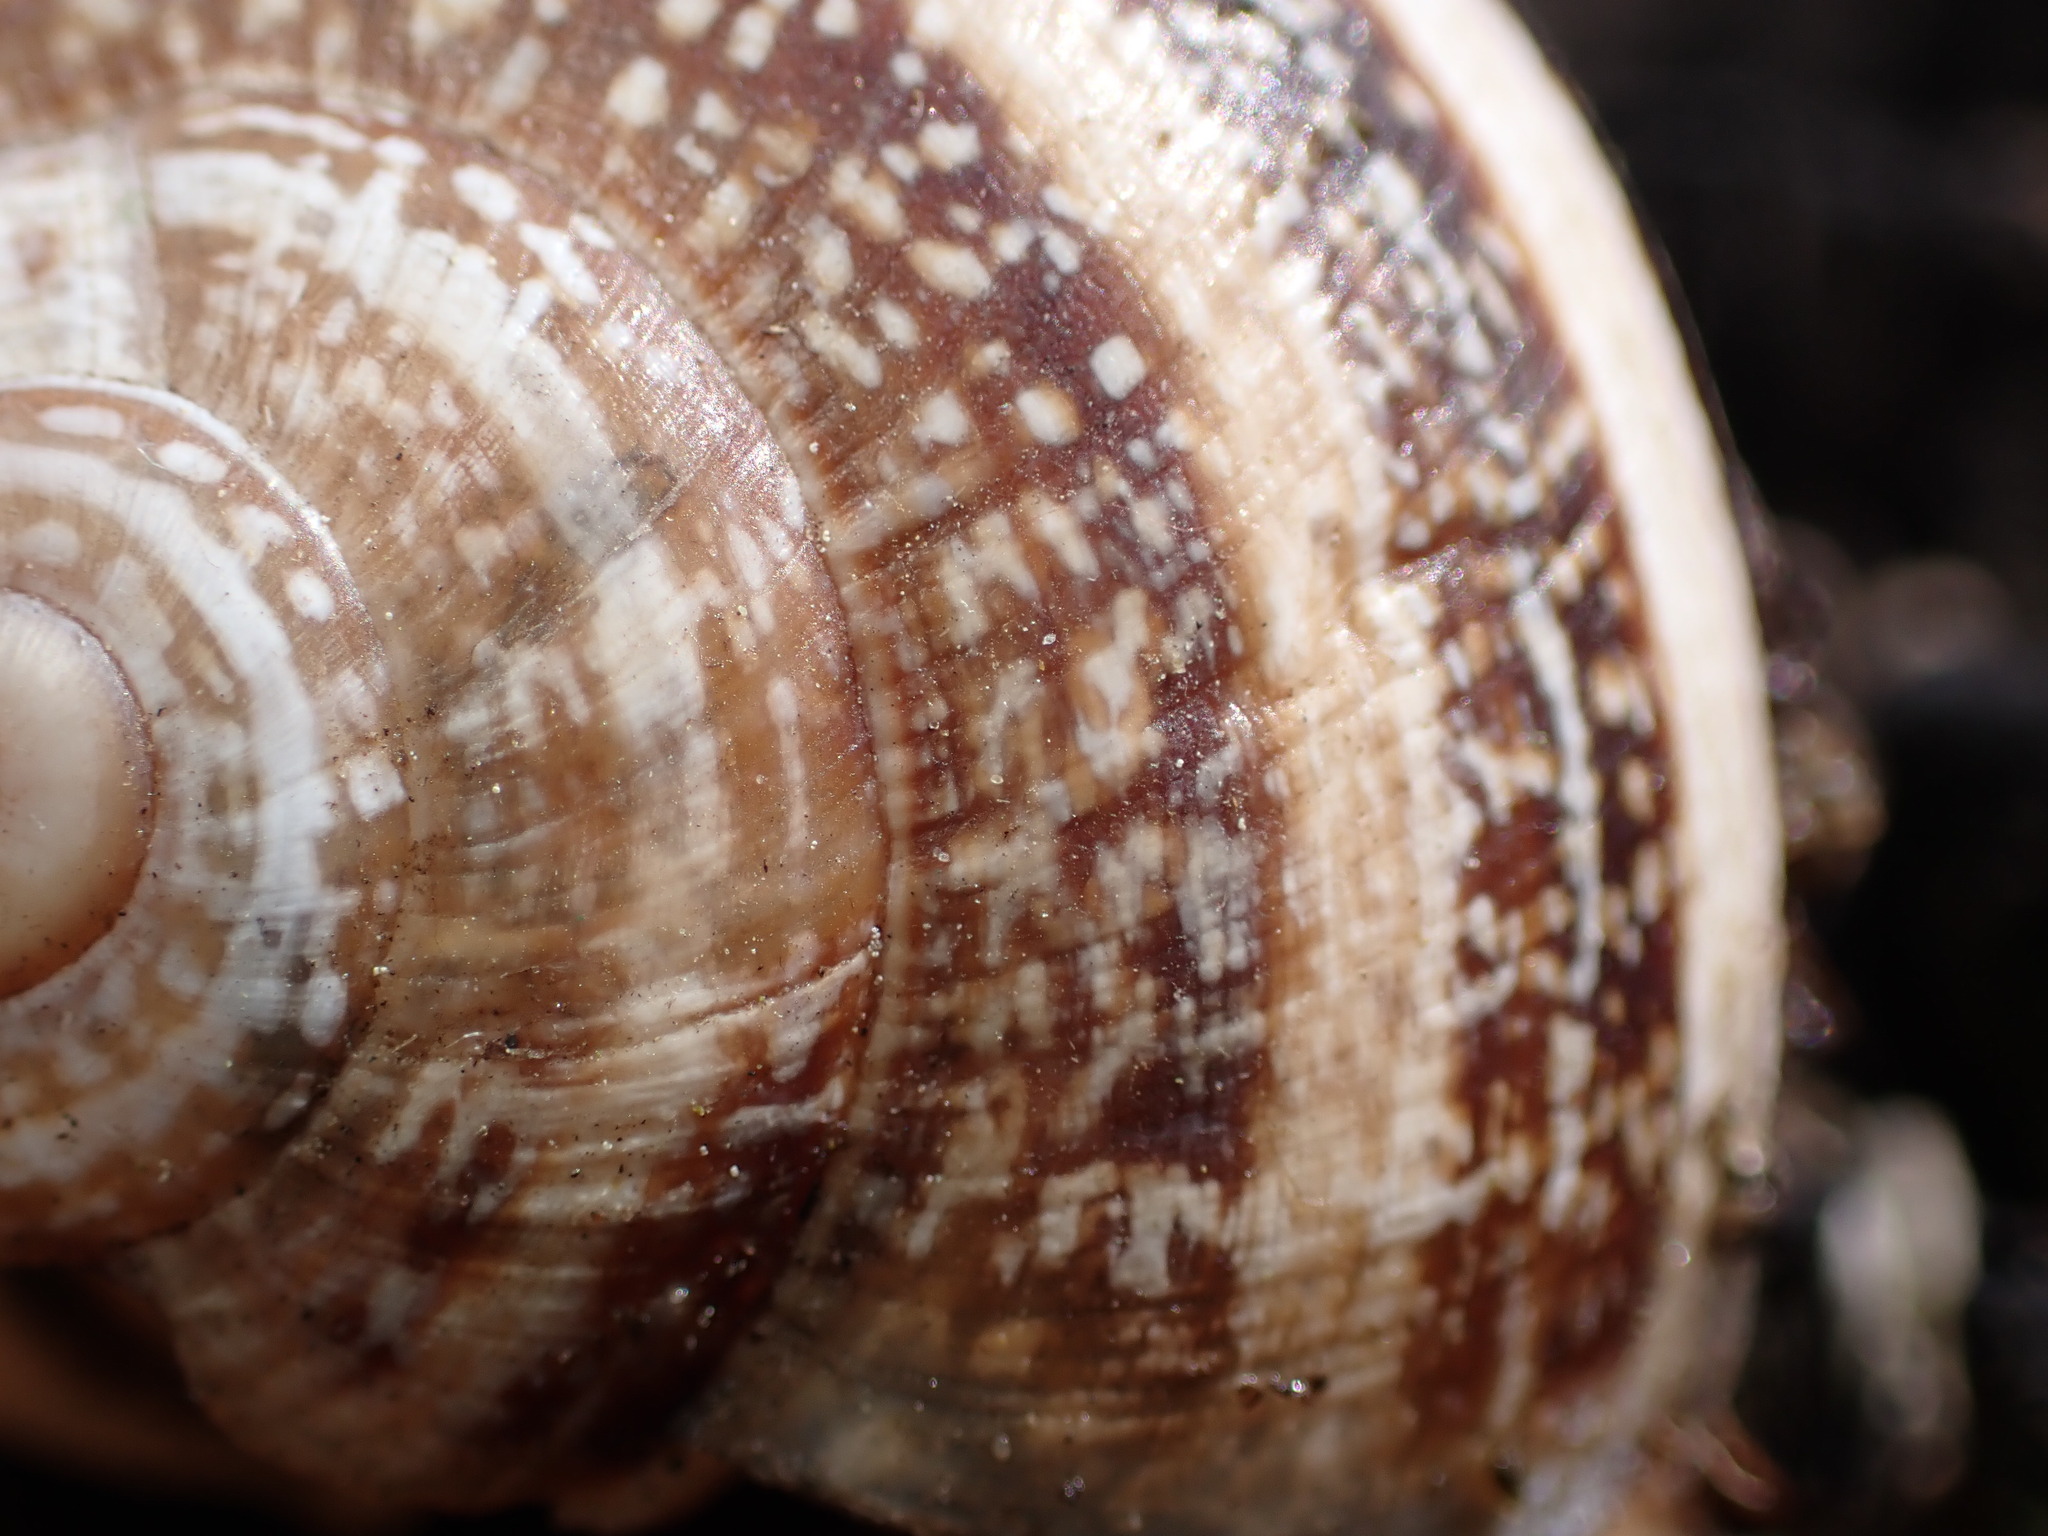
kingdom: Animalia
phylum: Mollusca
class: Gastropoda
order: Stylommatophora
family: Helicidae
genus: Otala
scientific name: Otala lactea
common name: Milk snail
